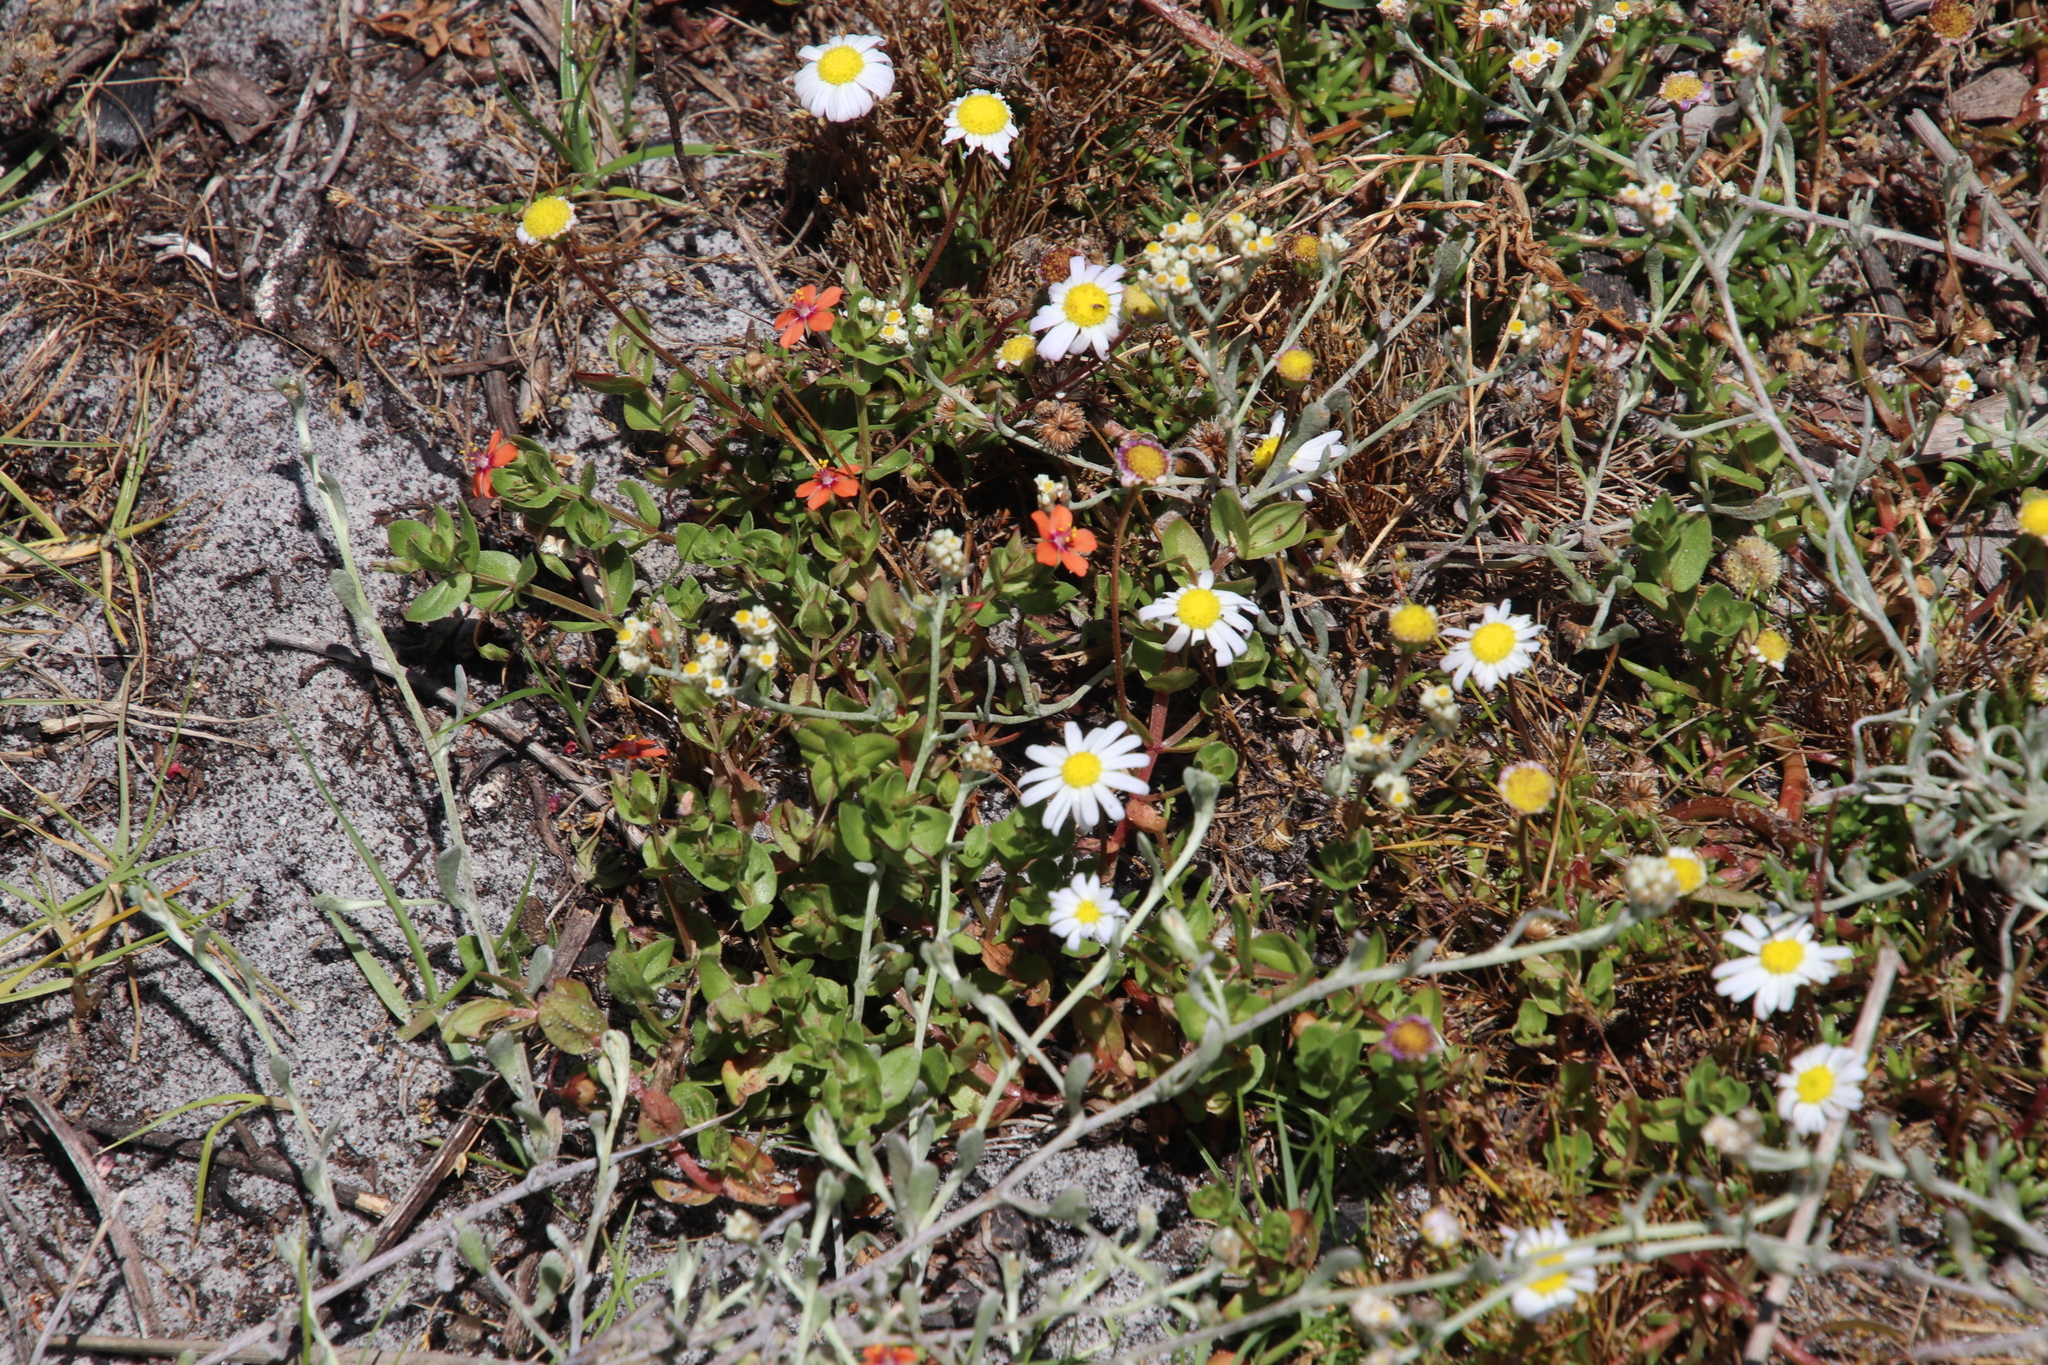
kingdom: Plantae
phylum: Tracheophyta
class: Magnoliopsida
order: Asterales
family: Asteraceae
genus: Helichrysum
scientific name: Helichrysum indicum
